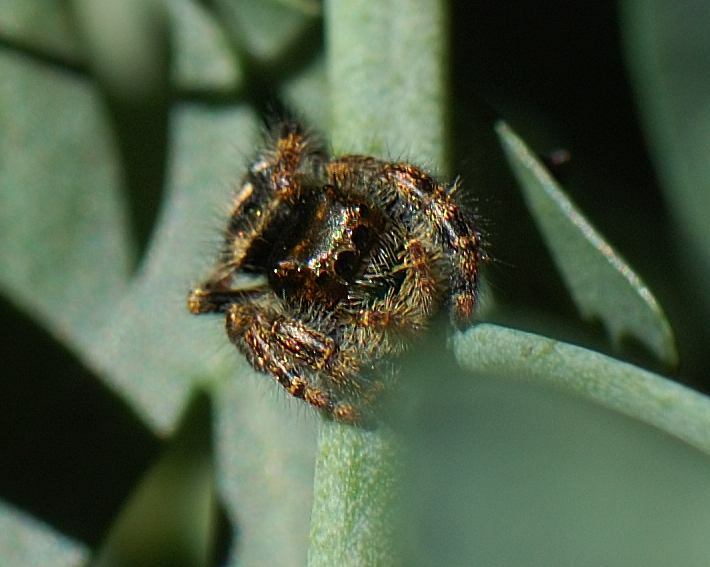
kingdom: Animalia
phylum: Arthropoda
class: Arachnida
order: Araneae
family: Salticidae
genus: Phidippus
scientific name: Phidippus audax
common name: Bold jumper
